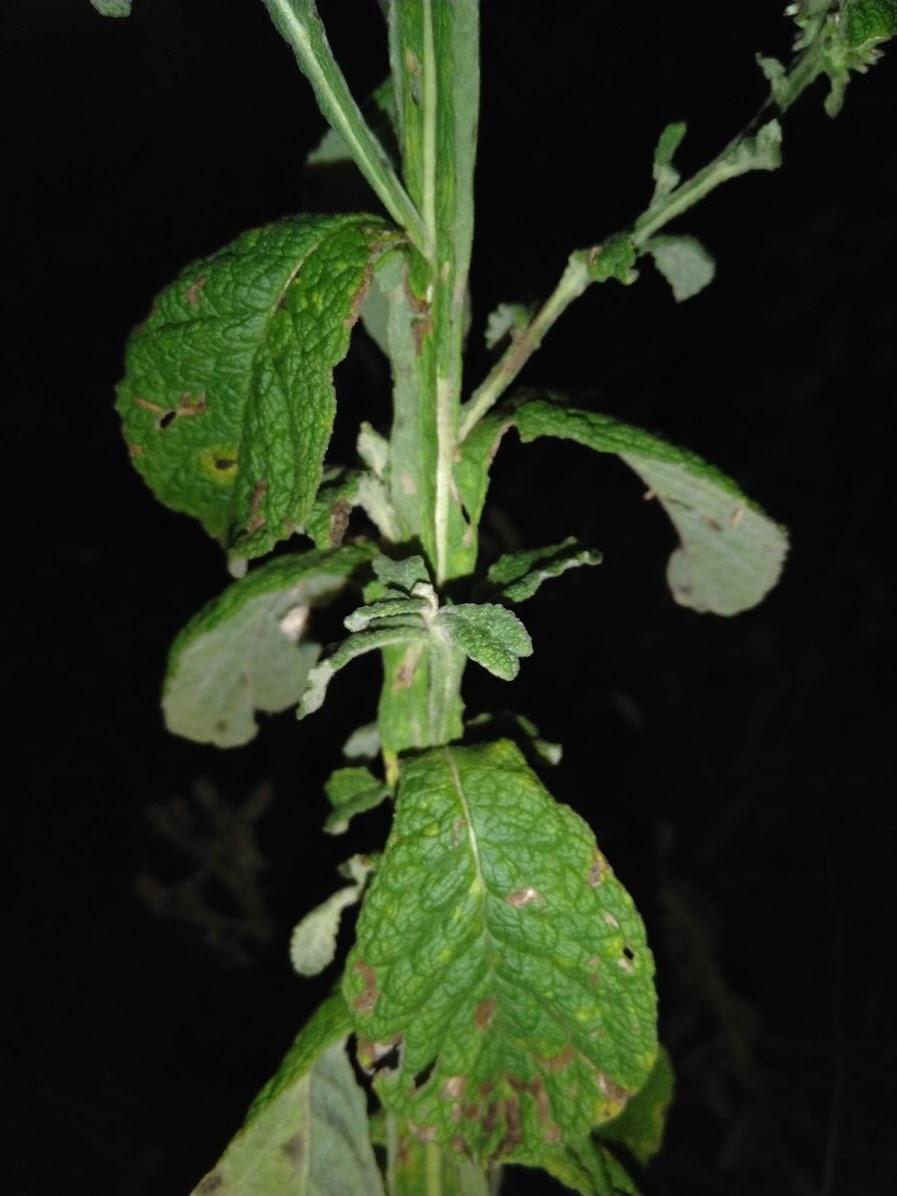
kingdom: Plantae
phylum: Tracheophyta
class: Magnoliopsida
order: Asterales
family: Asteraceae
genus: Pterocaulon
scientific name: Pterocaulon redolens
